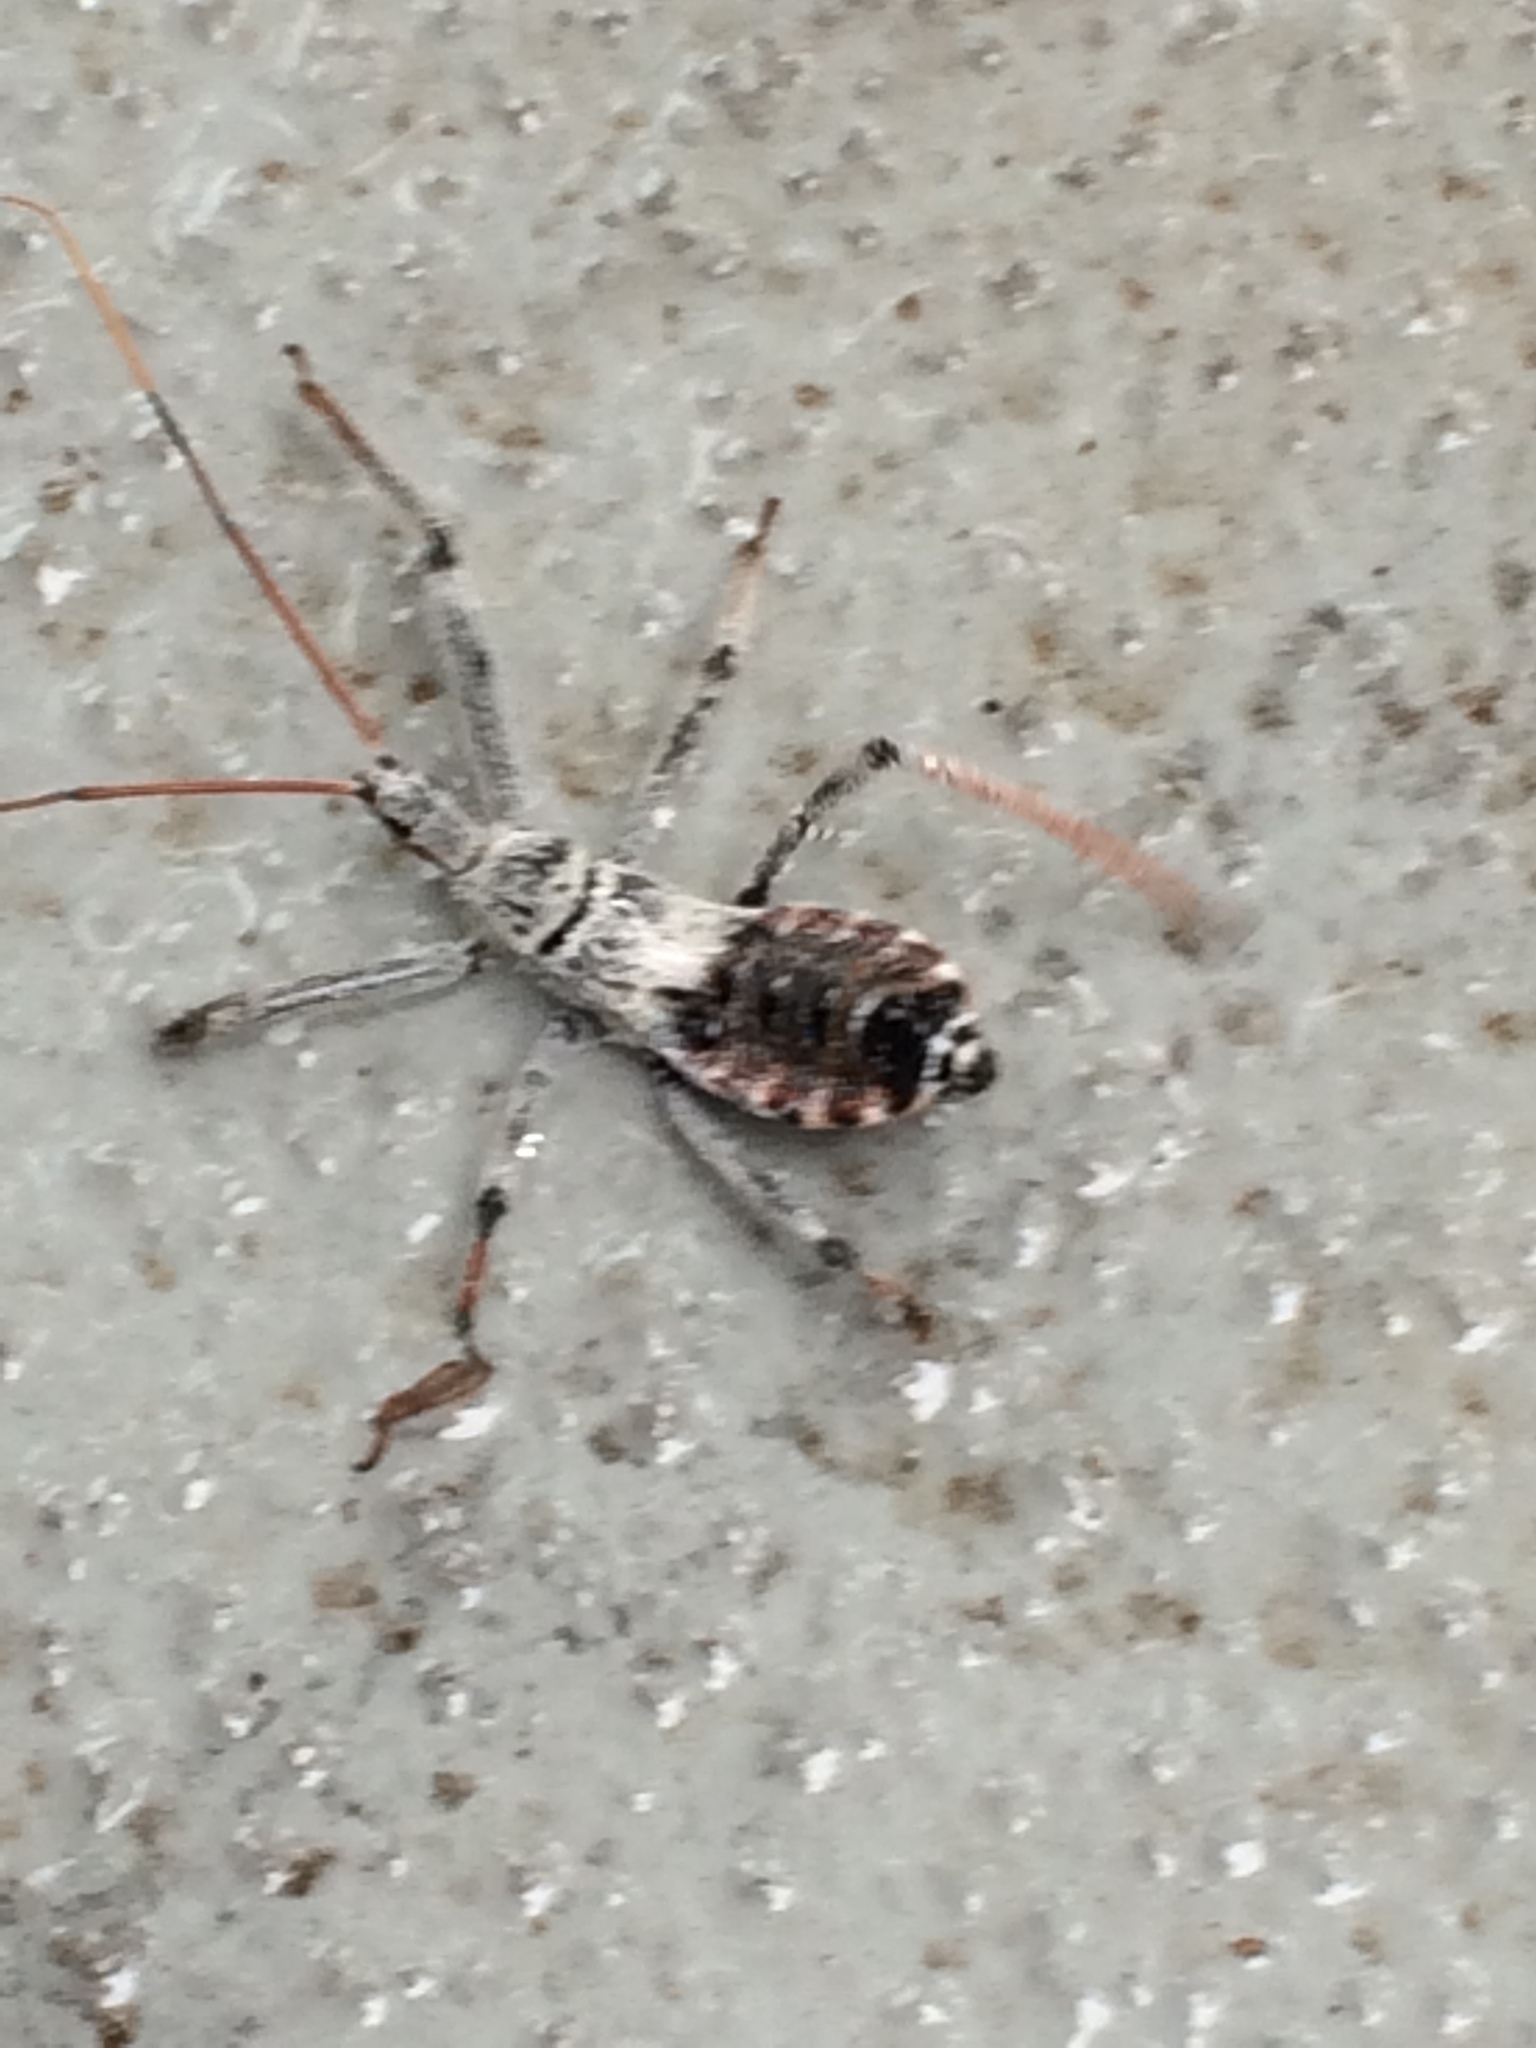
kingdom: Animalia
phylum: Arthropoda
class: Insecta
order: Hemiptera
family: Reduviidae
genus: Arilus
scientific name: Arilus cristatus
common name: North american wheel bug
